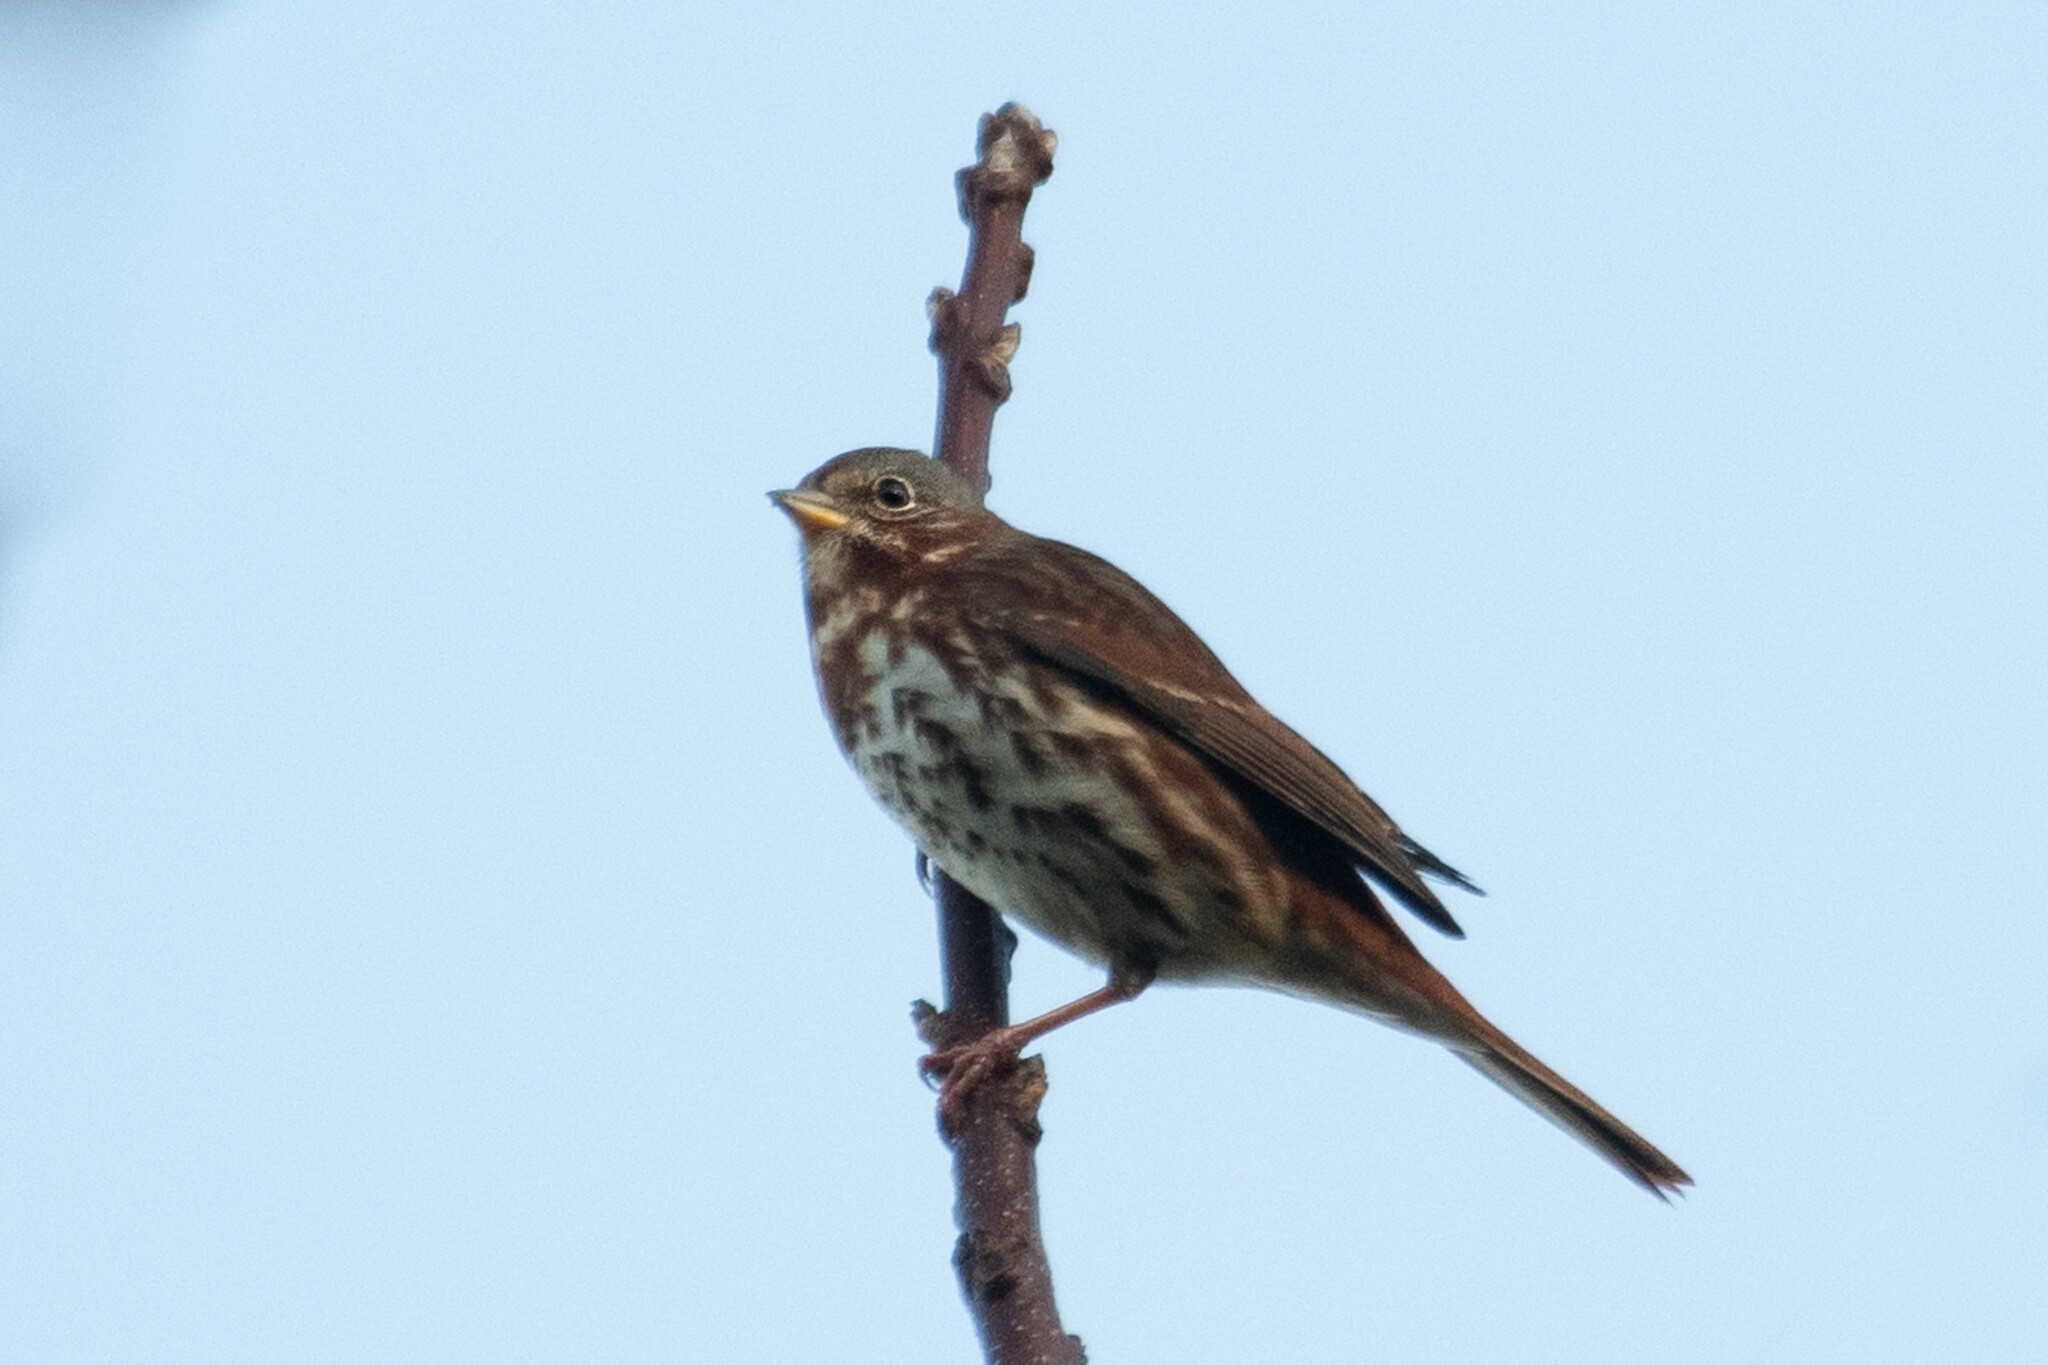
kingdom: Animalia
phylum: Chordata
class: Aves
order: Passeriformes
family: Passerellidae
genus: Passerella
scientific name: Passerella iliaca
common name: Fox sparrow
